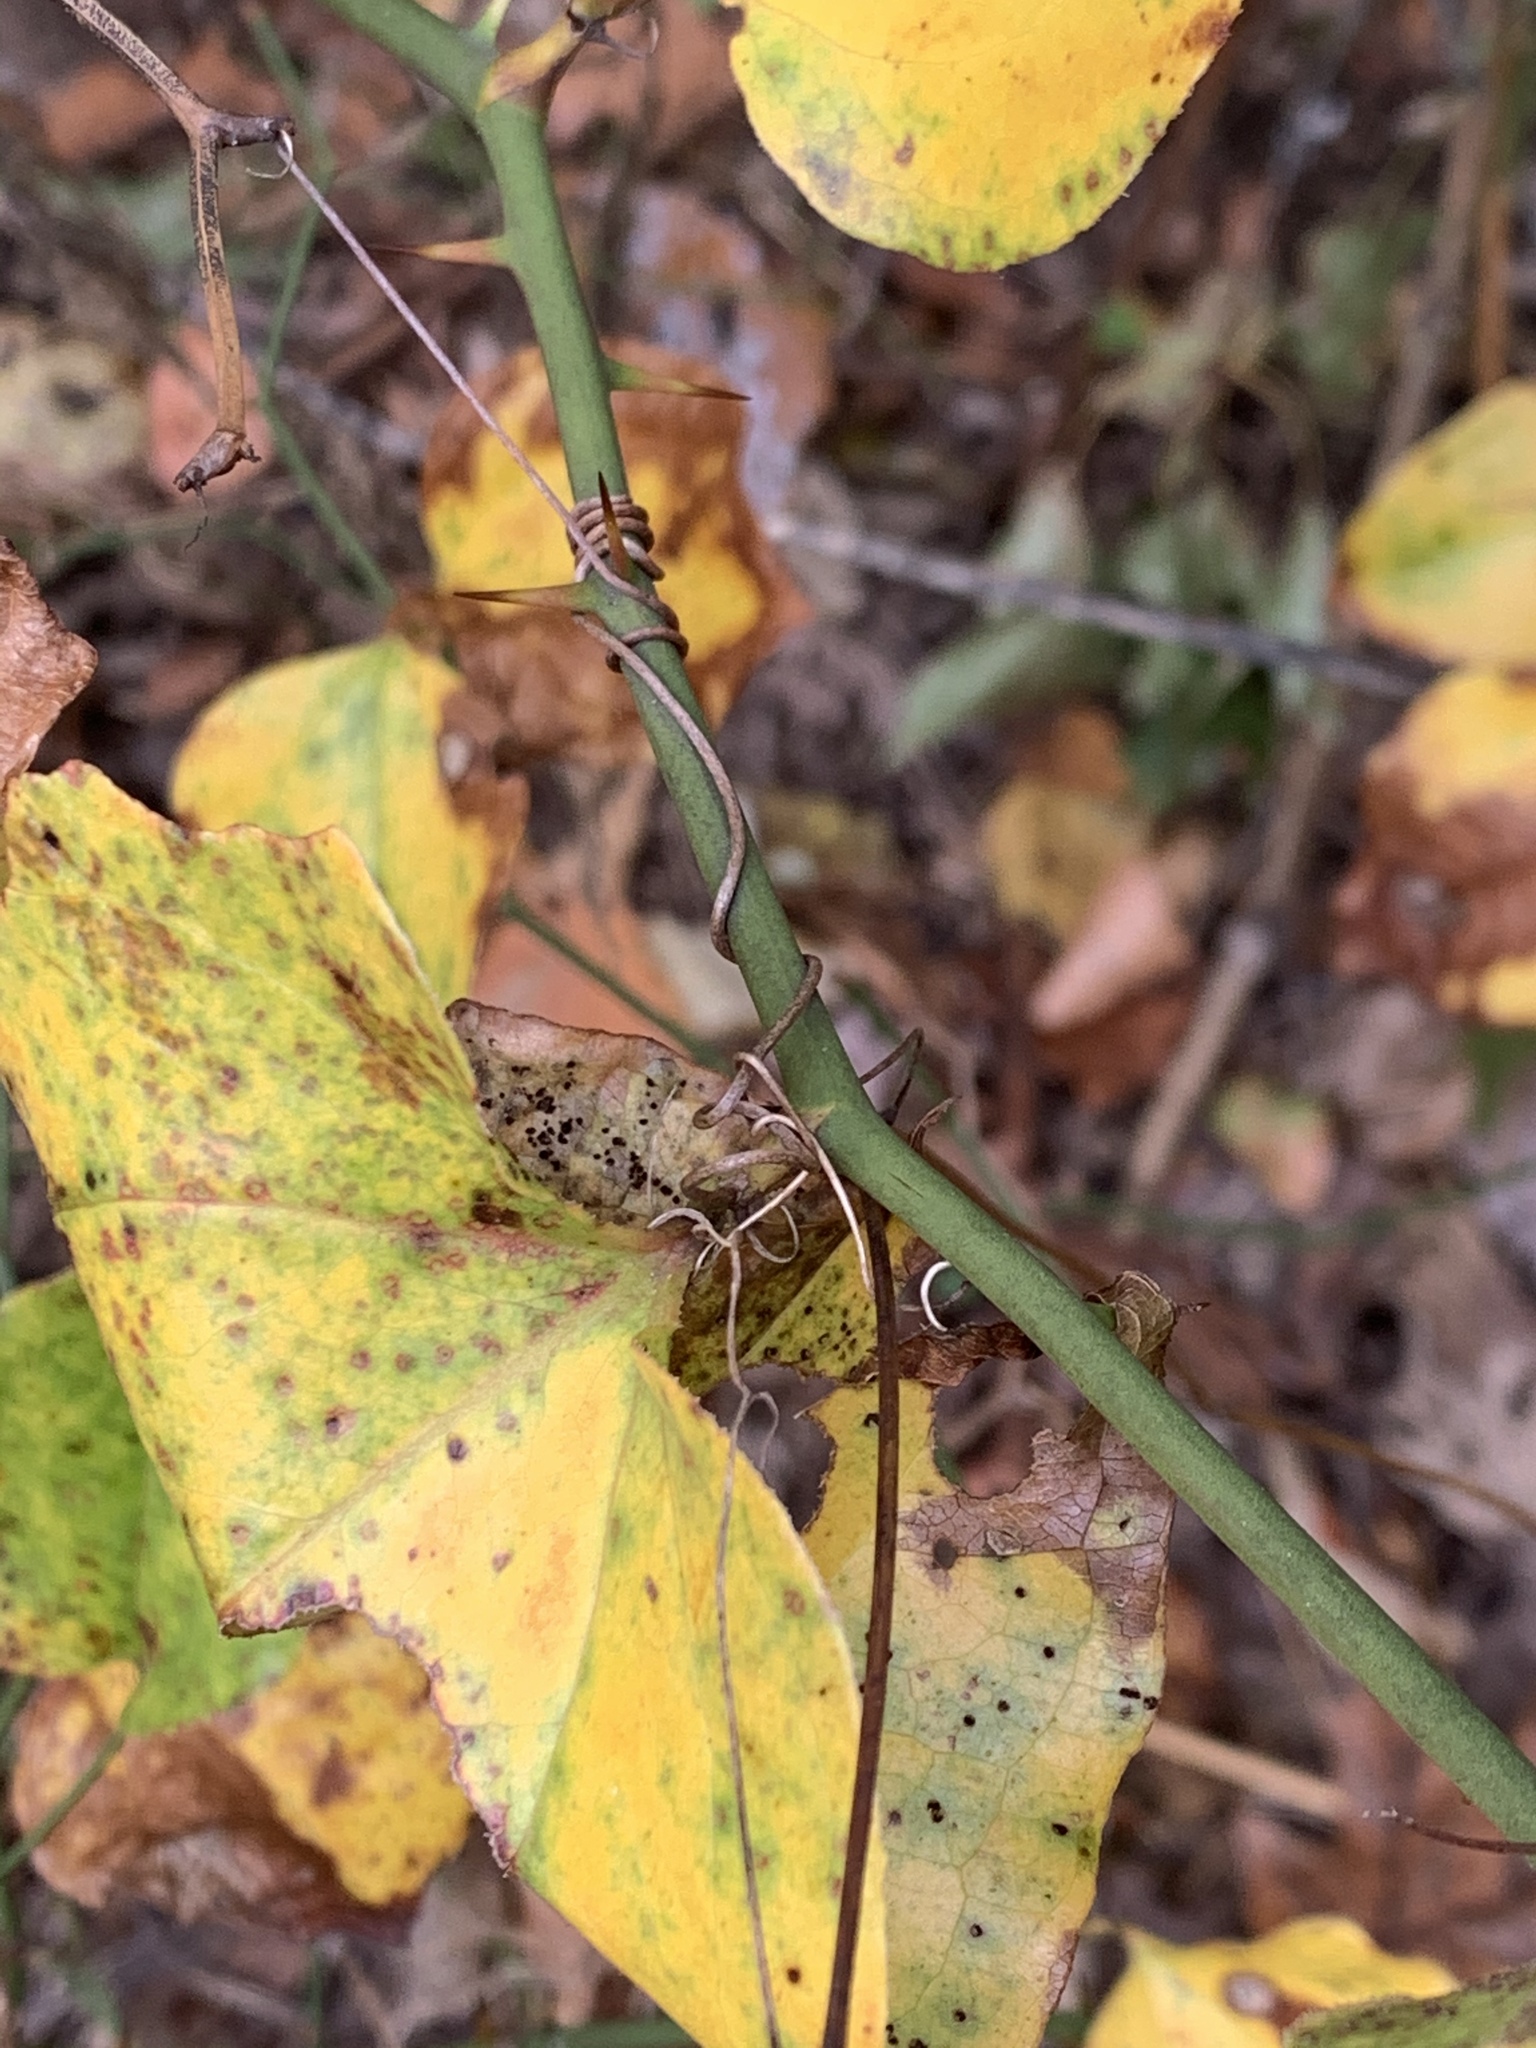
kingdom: Plantae
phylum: Tracheophyta
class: Liliopsida
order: Liliales
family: Smilacaceae
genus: Smilax
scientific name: Smilax rotundifolia
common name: Bullbriar
